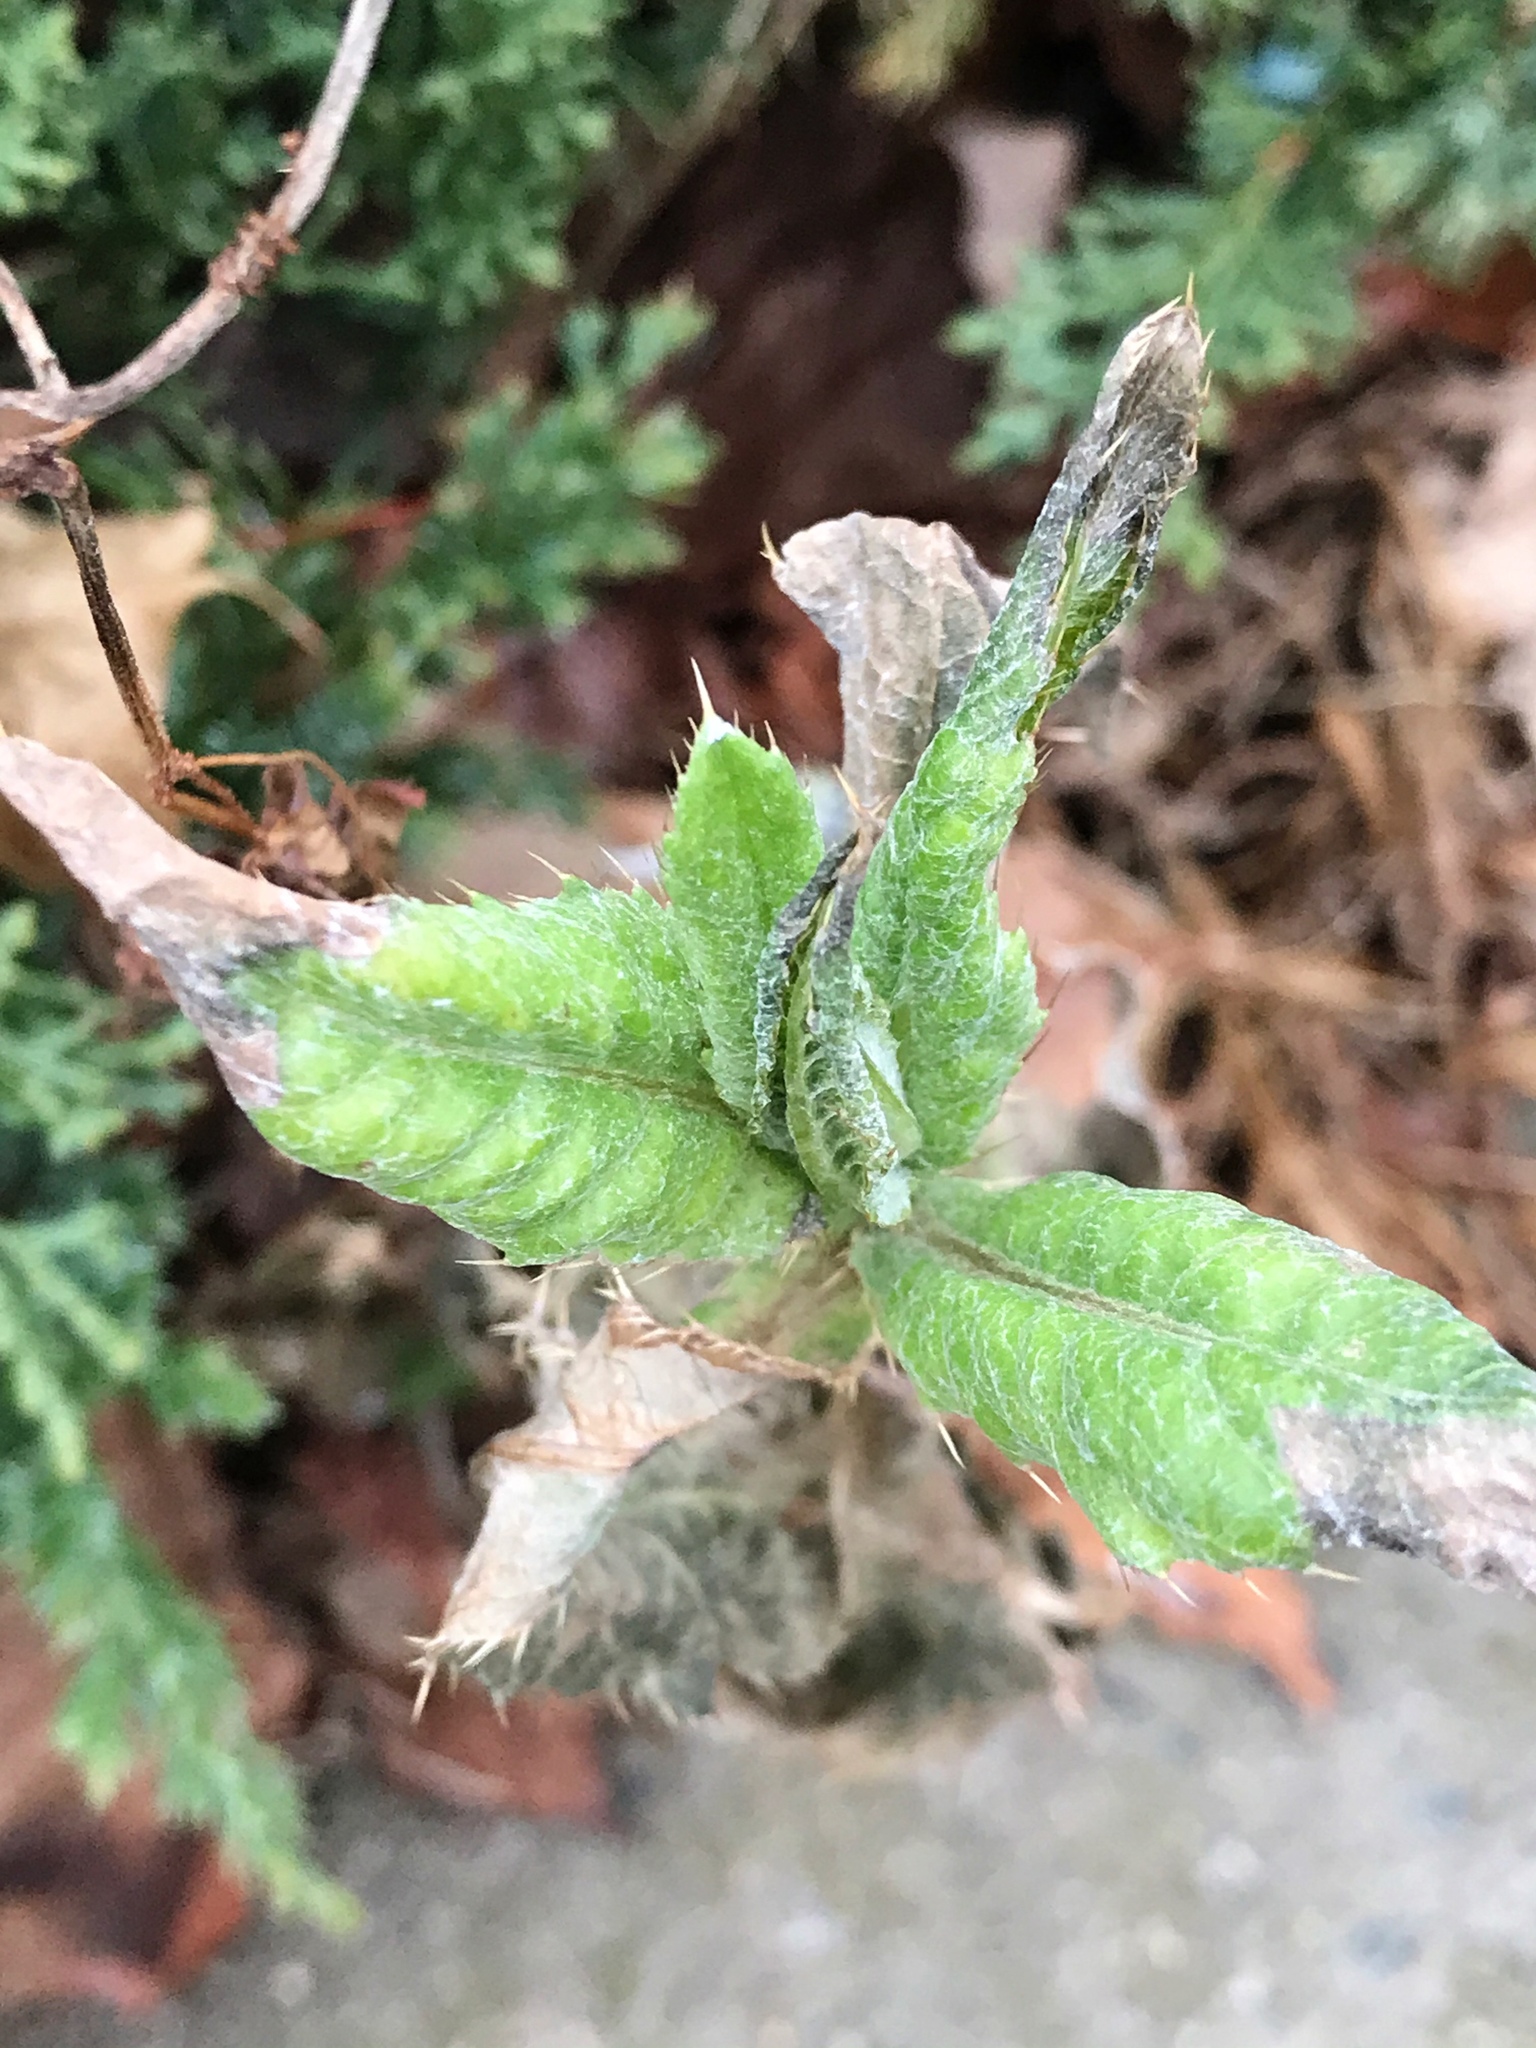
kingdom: Plantae
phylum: Tracheophyta
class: Magnoliopsida
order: Asterales
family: Asteraceae
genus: Cirsium
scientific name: Cirsium arvense
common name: Creeping thistle
